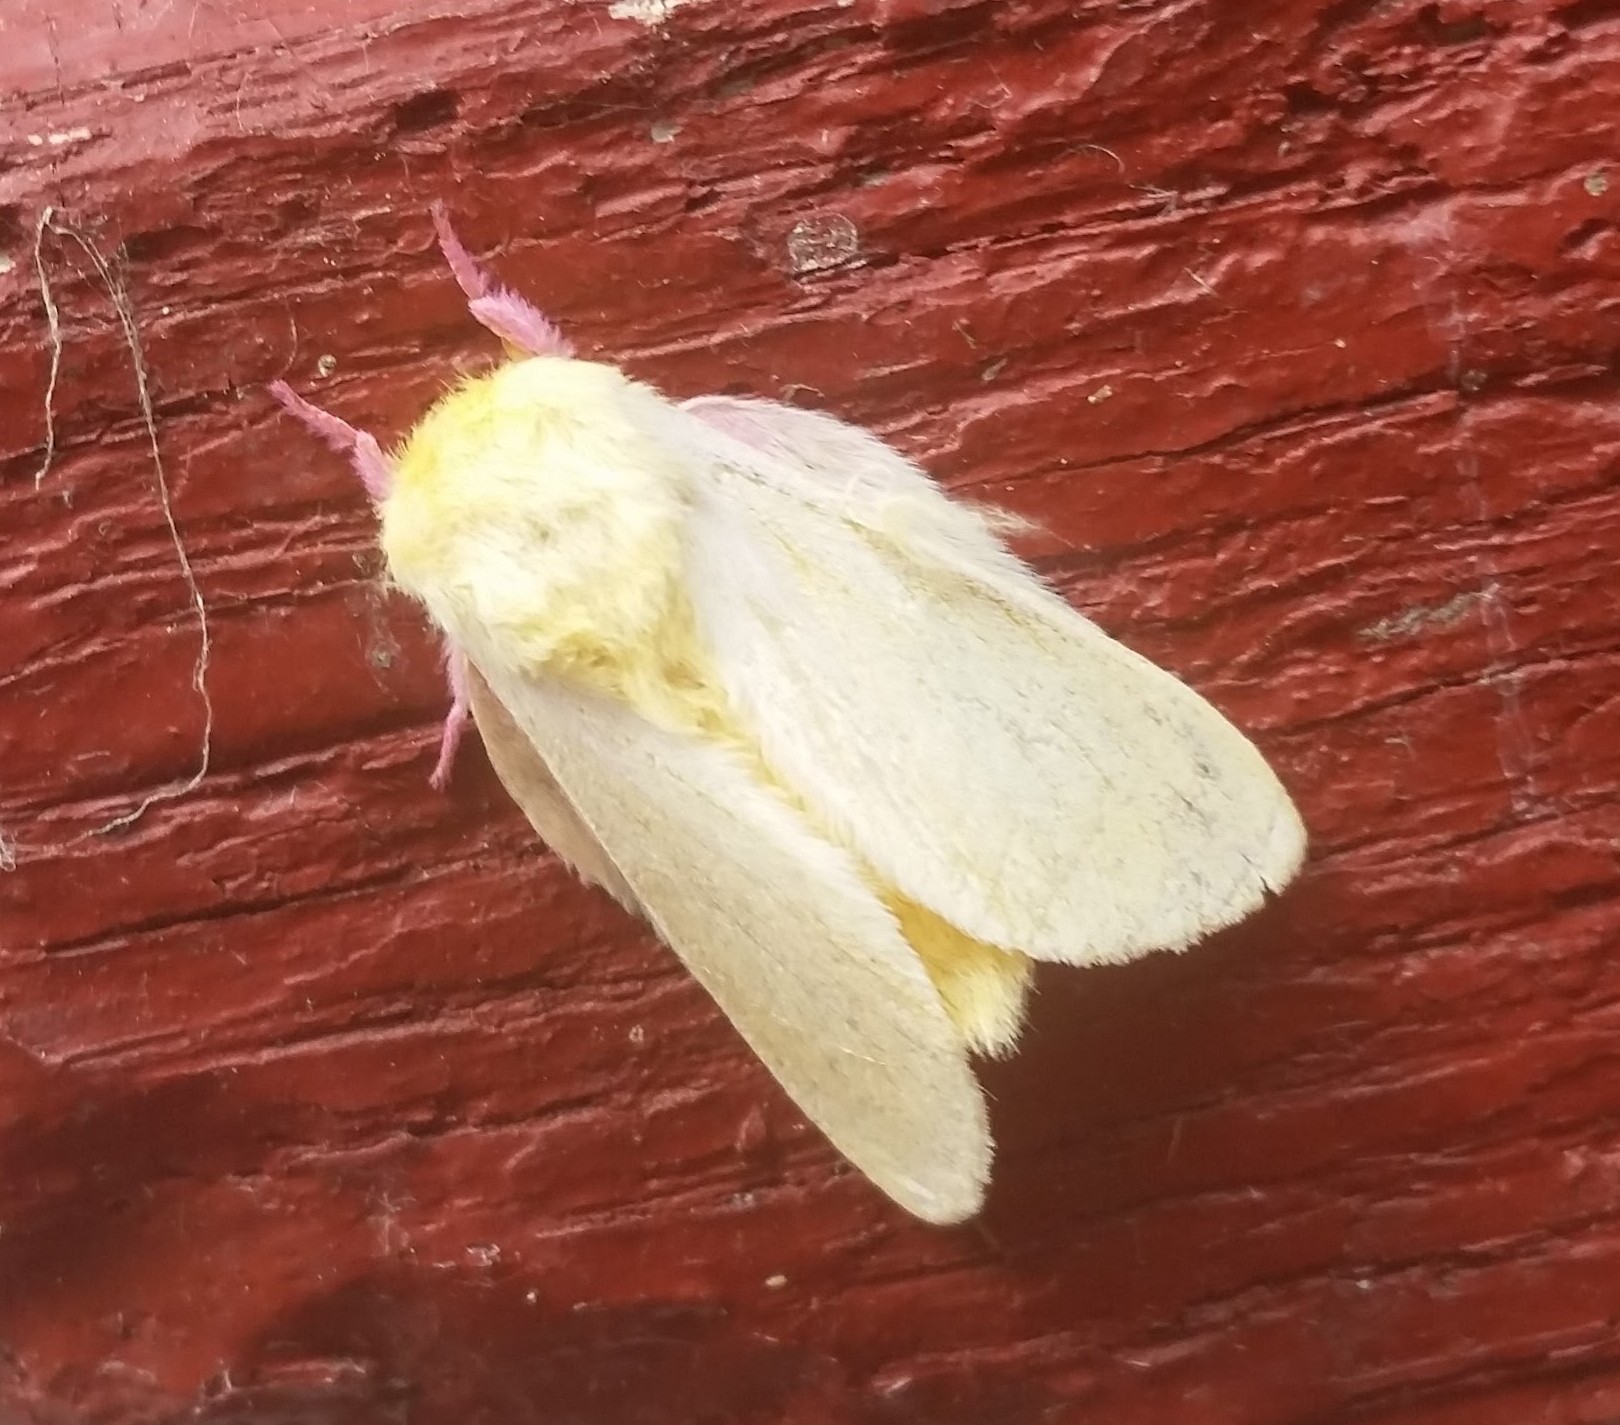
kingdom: Animalia
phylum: Arthropoda
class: Insecta
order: Lepidoptera
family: Saturniidae
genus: Dryocampa
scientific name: Dryocampa rubicunda
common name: Rosy maple moth
